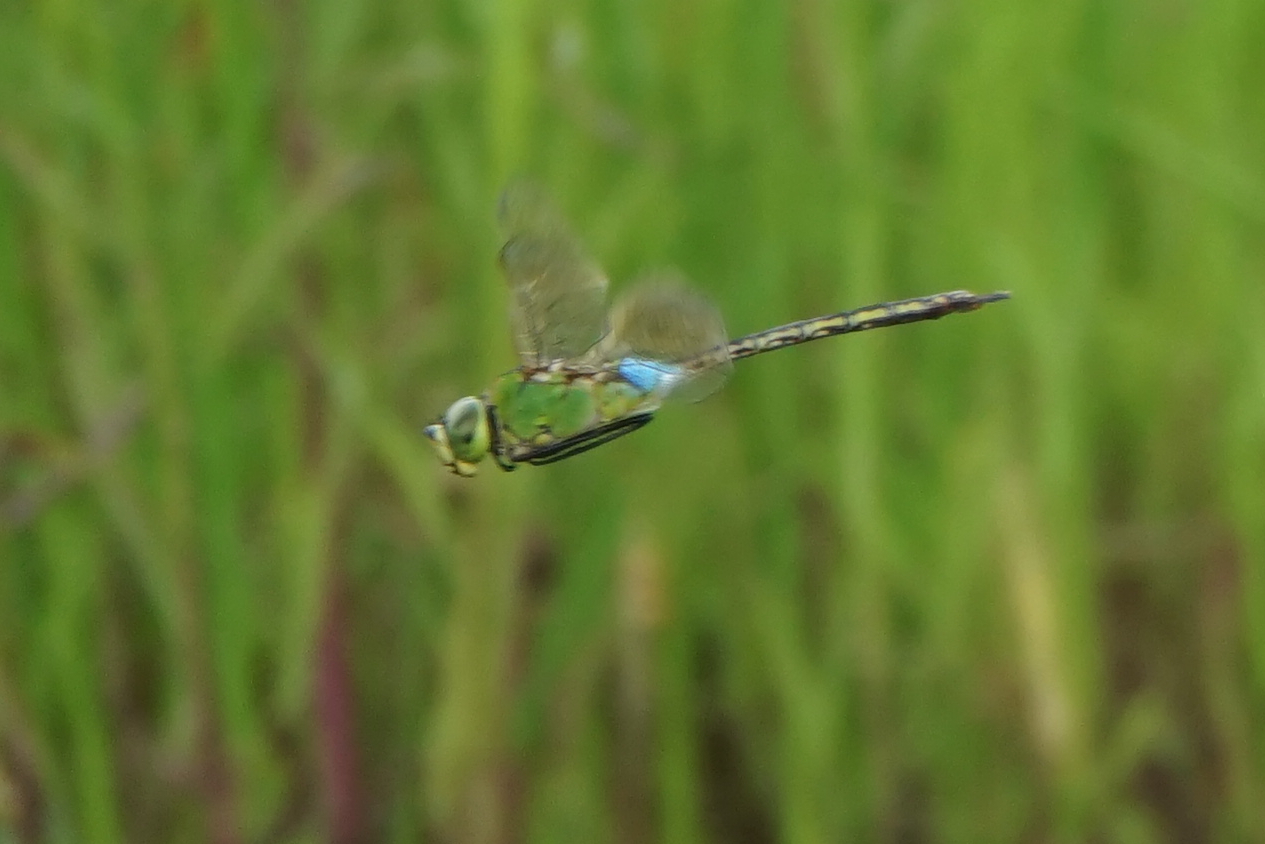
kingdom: Animalia
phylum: Arthropoda
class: Insecta
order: Odonata
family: Aeshnidae
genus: Anax
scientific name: Anax julius
